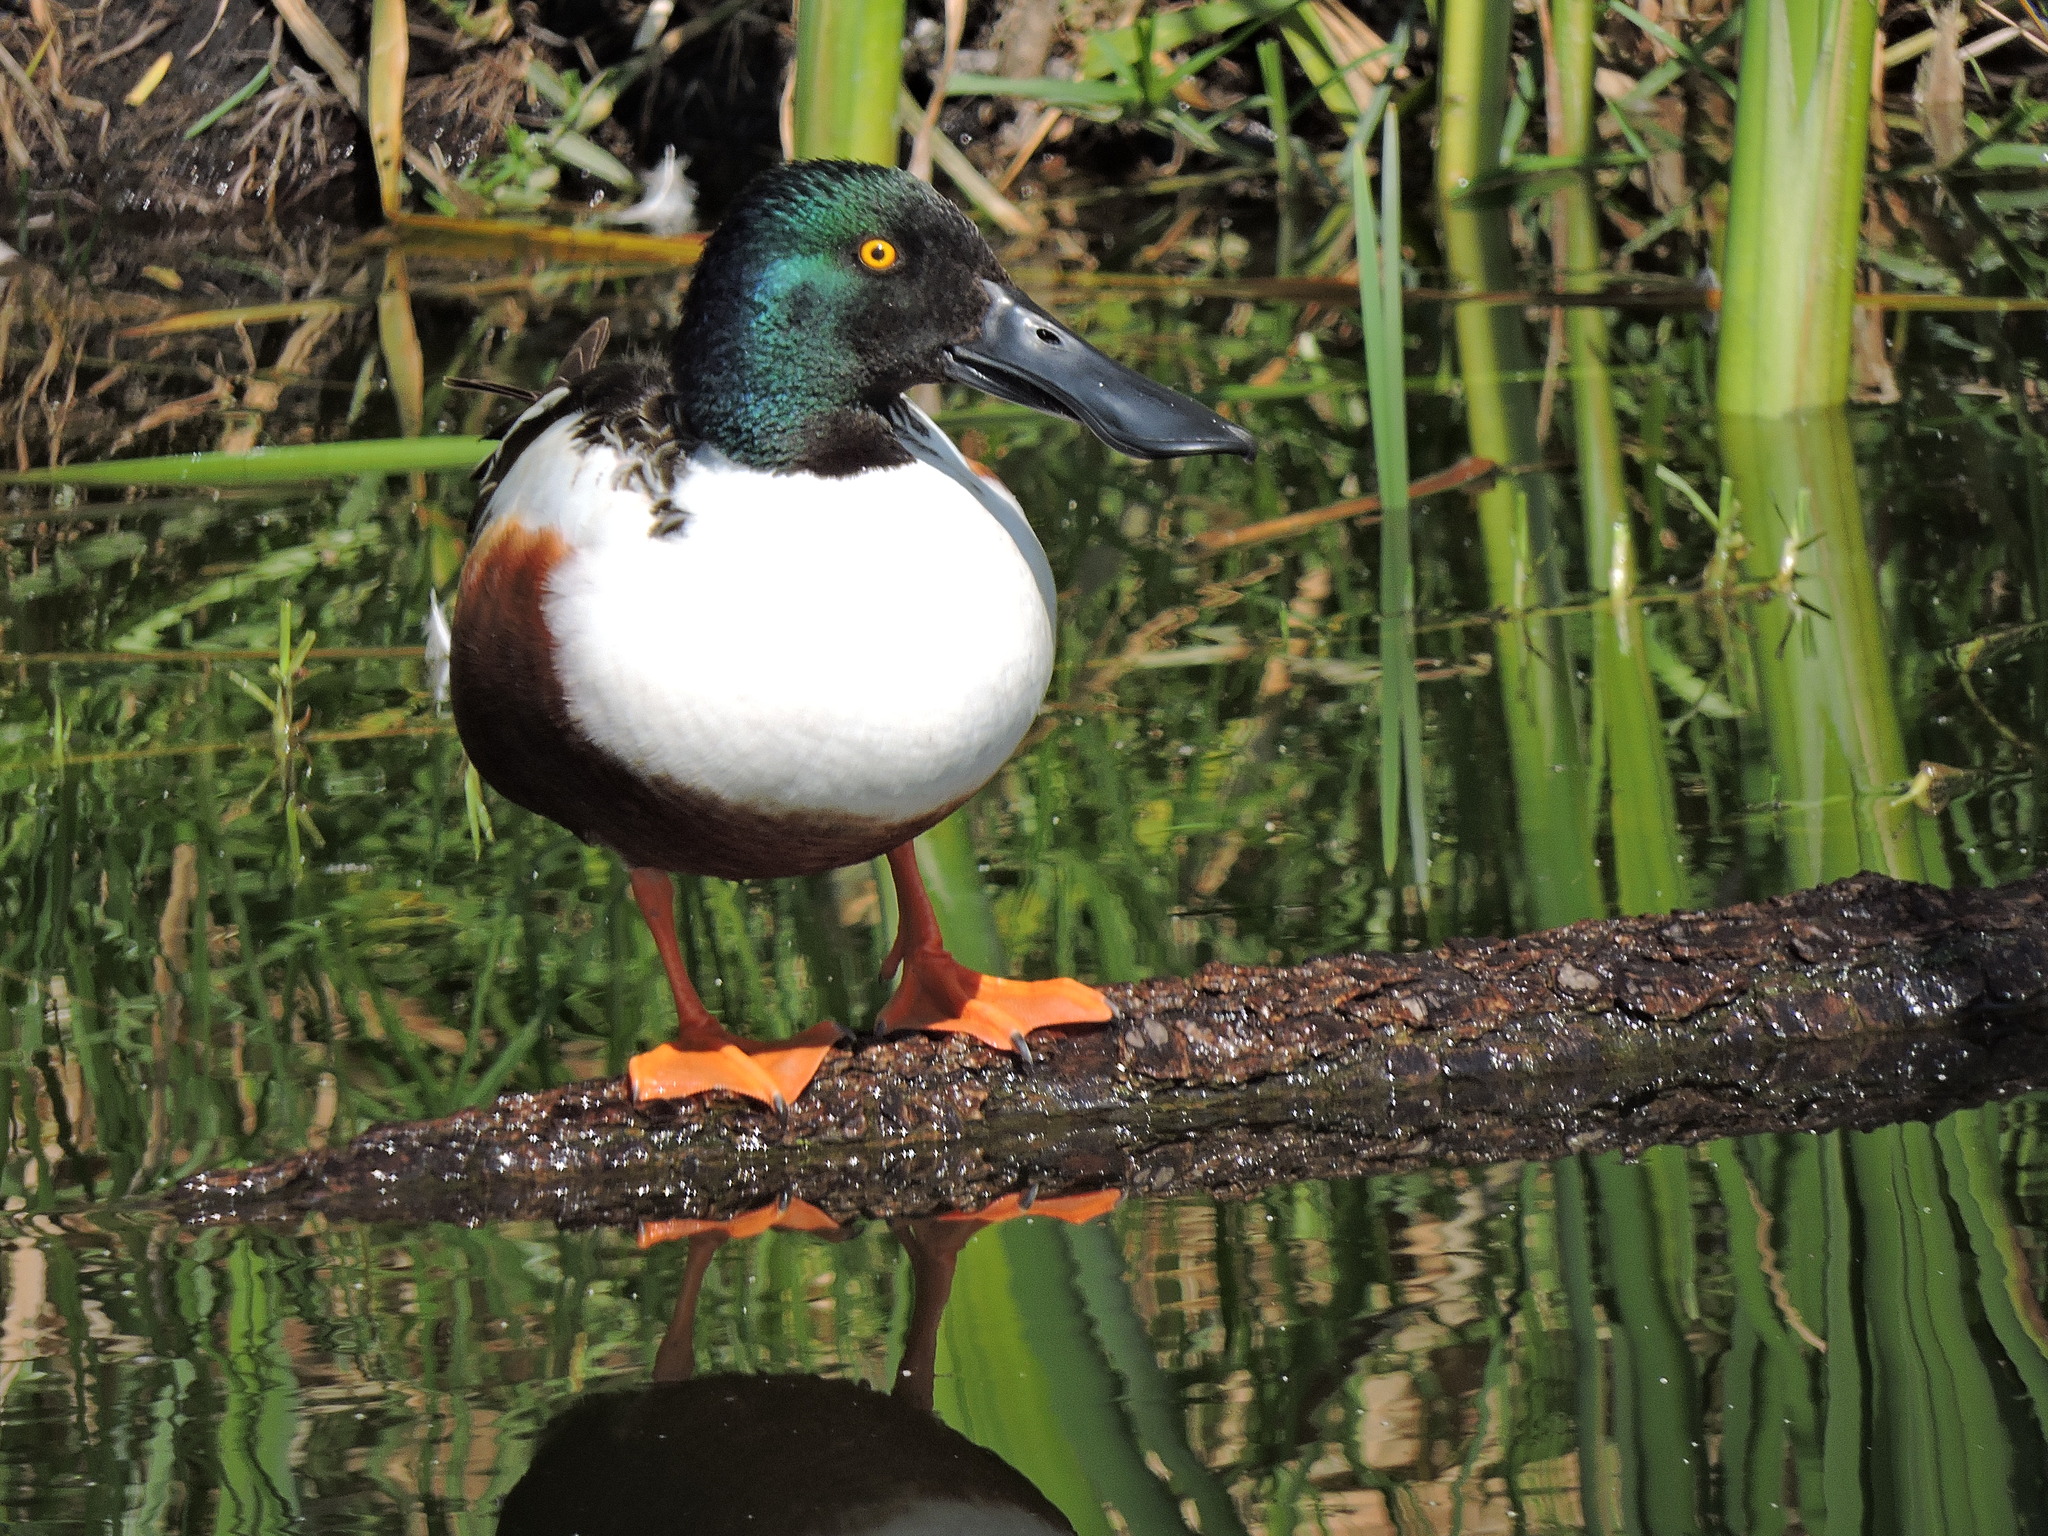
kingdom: Animalia
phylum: Chordata
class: Aves
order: Anseriformes
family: Anatidae
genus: Spatula
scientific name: Spatula clypeata
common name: Northern shoveler
